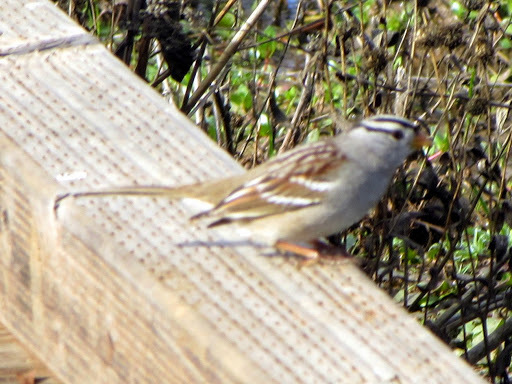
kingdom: Animalia
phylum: Chordata
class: Aves
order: Passeriformes
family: Passerellidae
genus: Zonotrichia
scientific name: Zonotrichia leucophrys
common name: White-crowned sparrow
